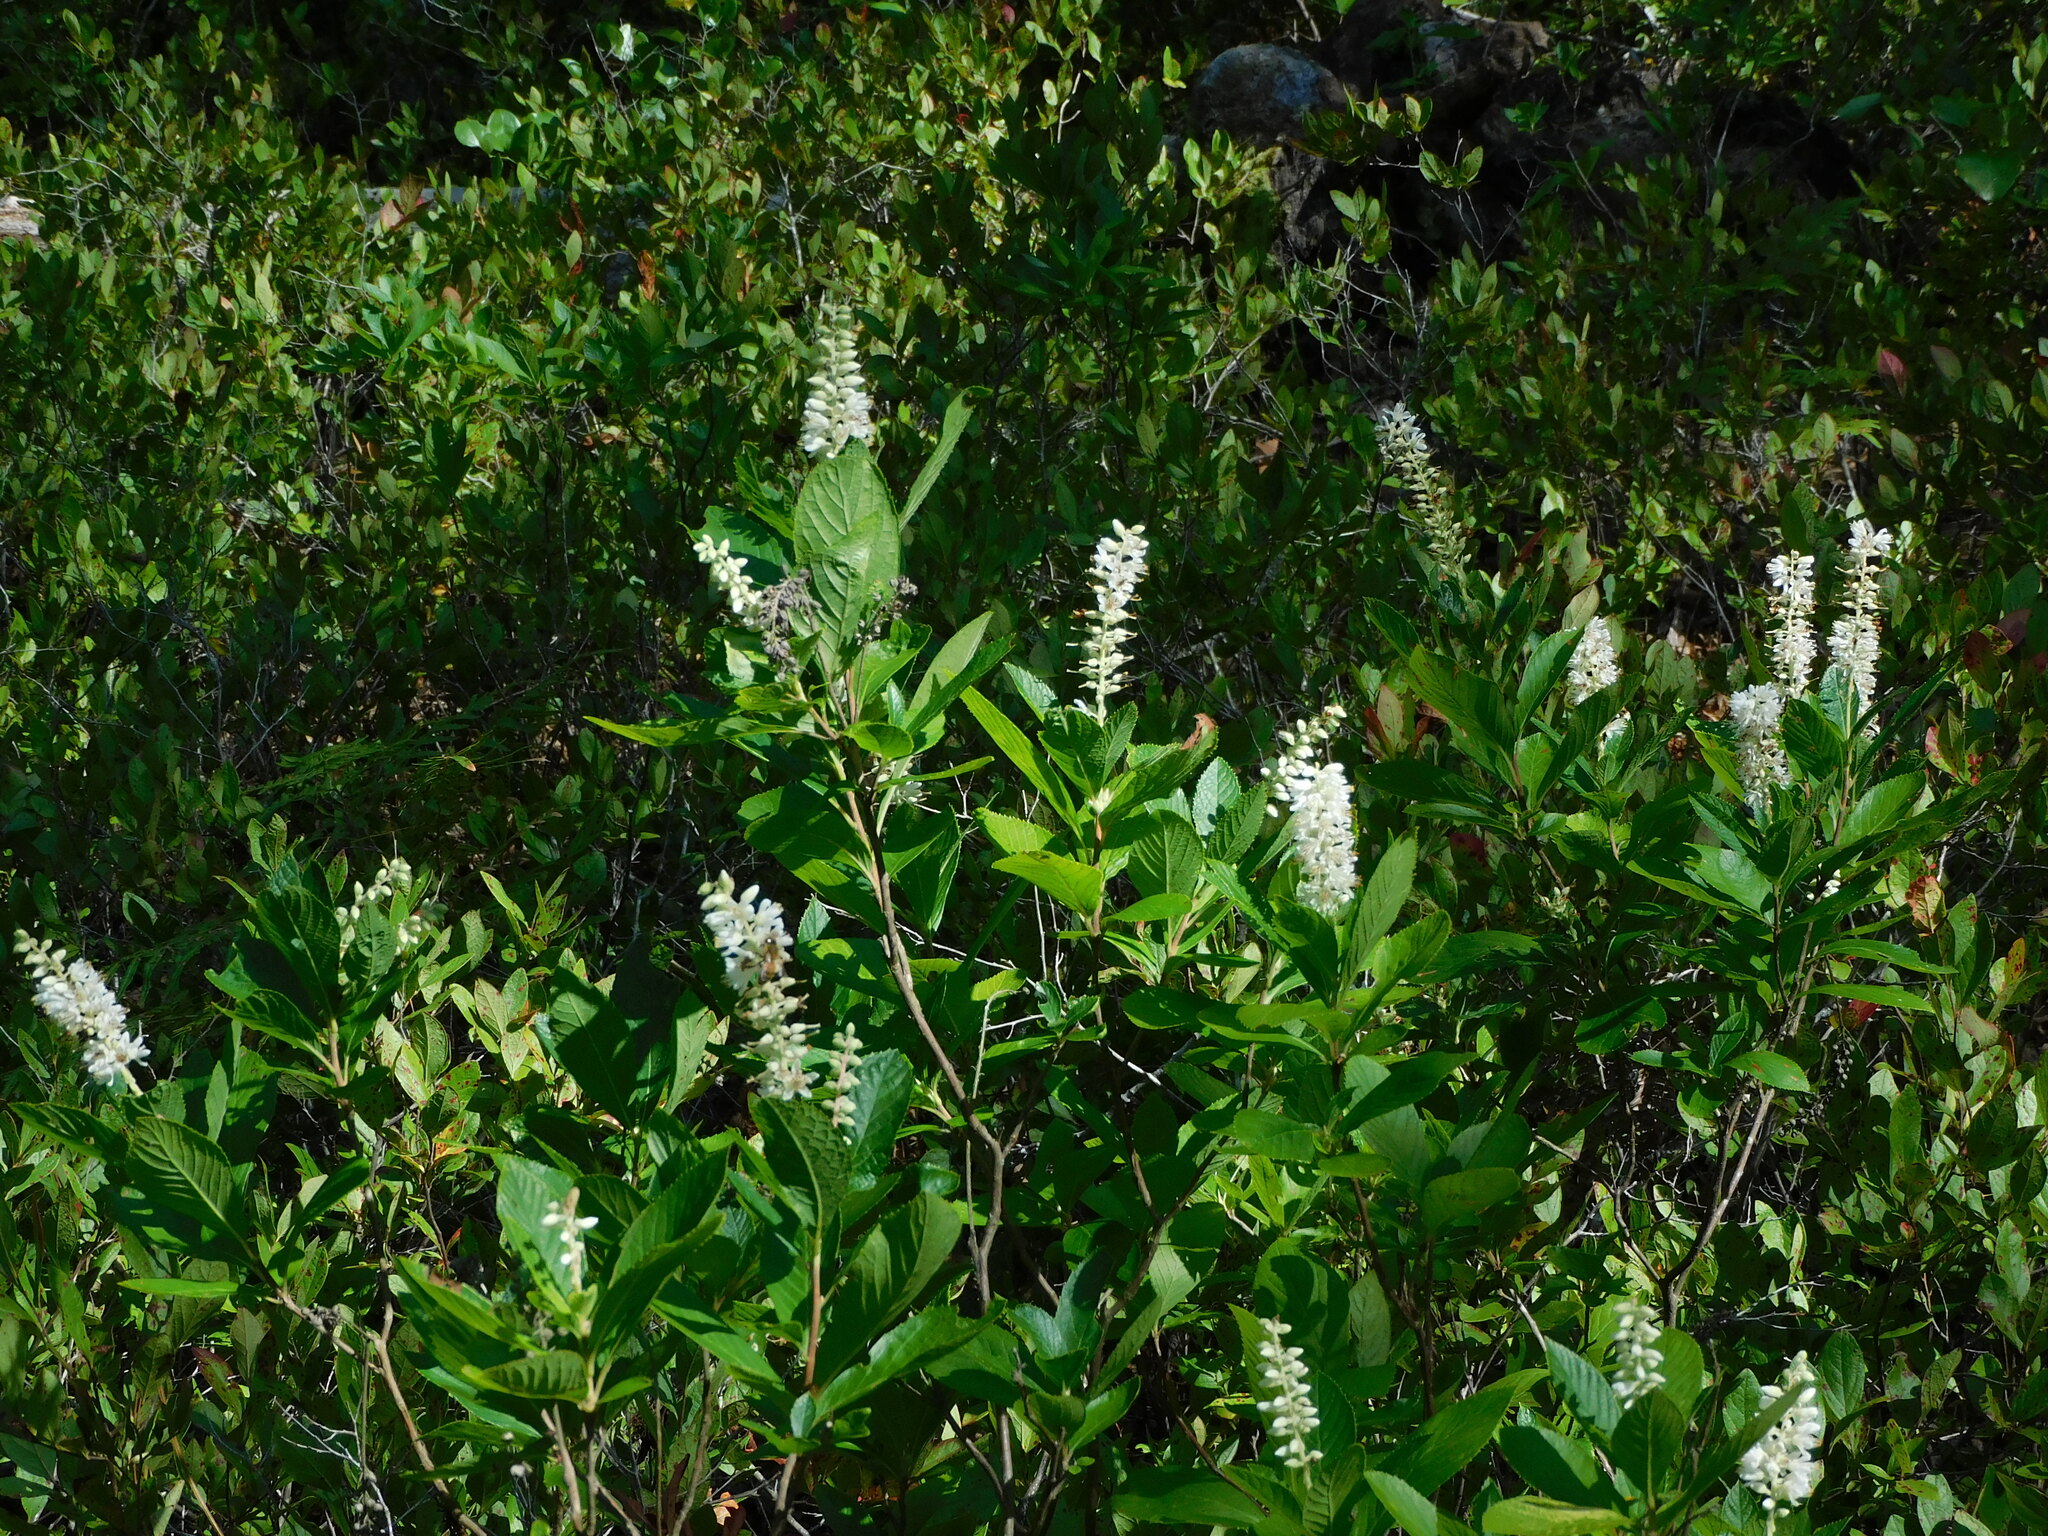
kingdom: Plantae
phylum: Tracheophyta
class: Magnoliopsida
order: Ericales
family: Clethraceae
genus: Clethra
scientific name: Clethra alnifolia
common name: Sweet pepperbush
